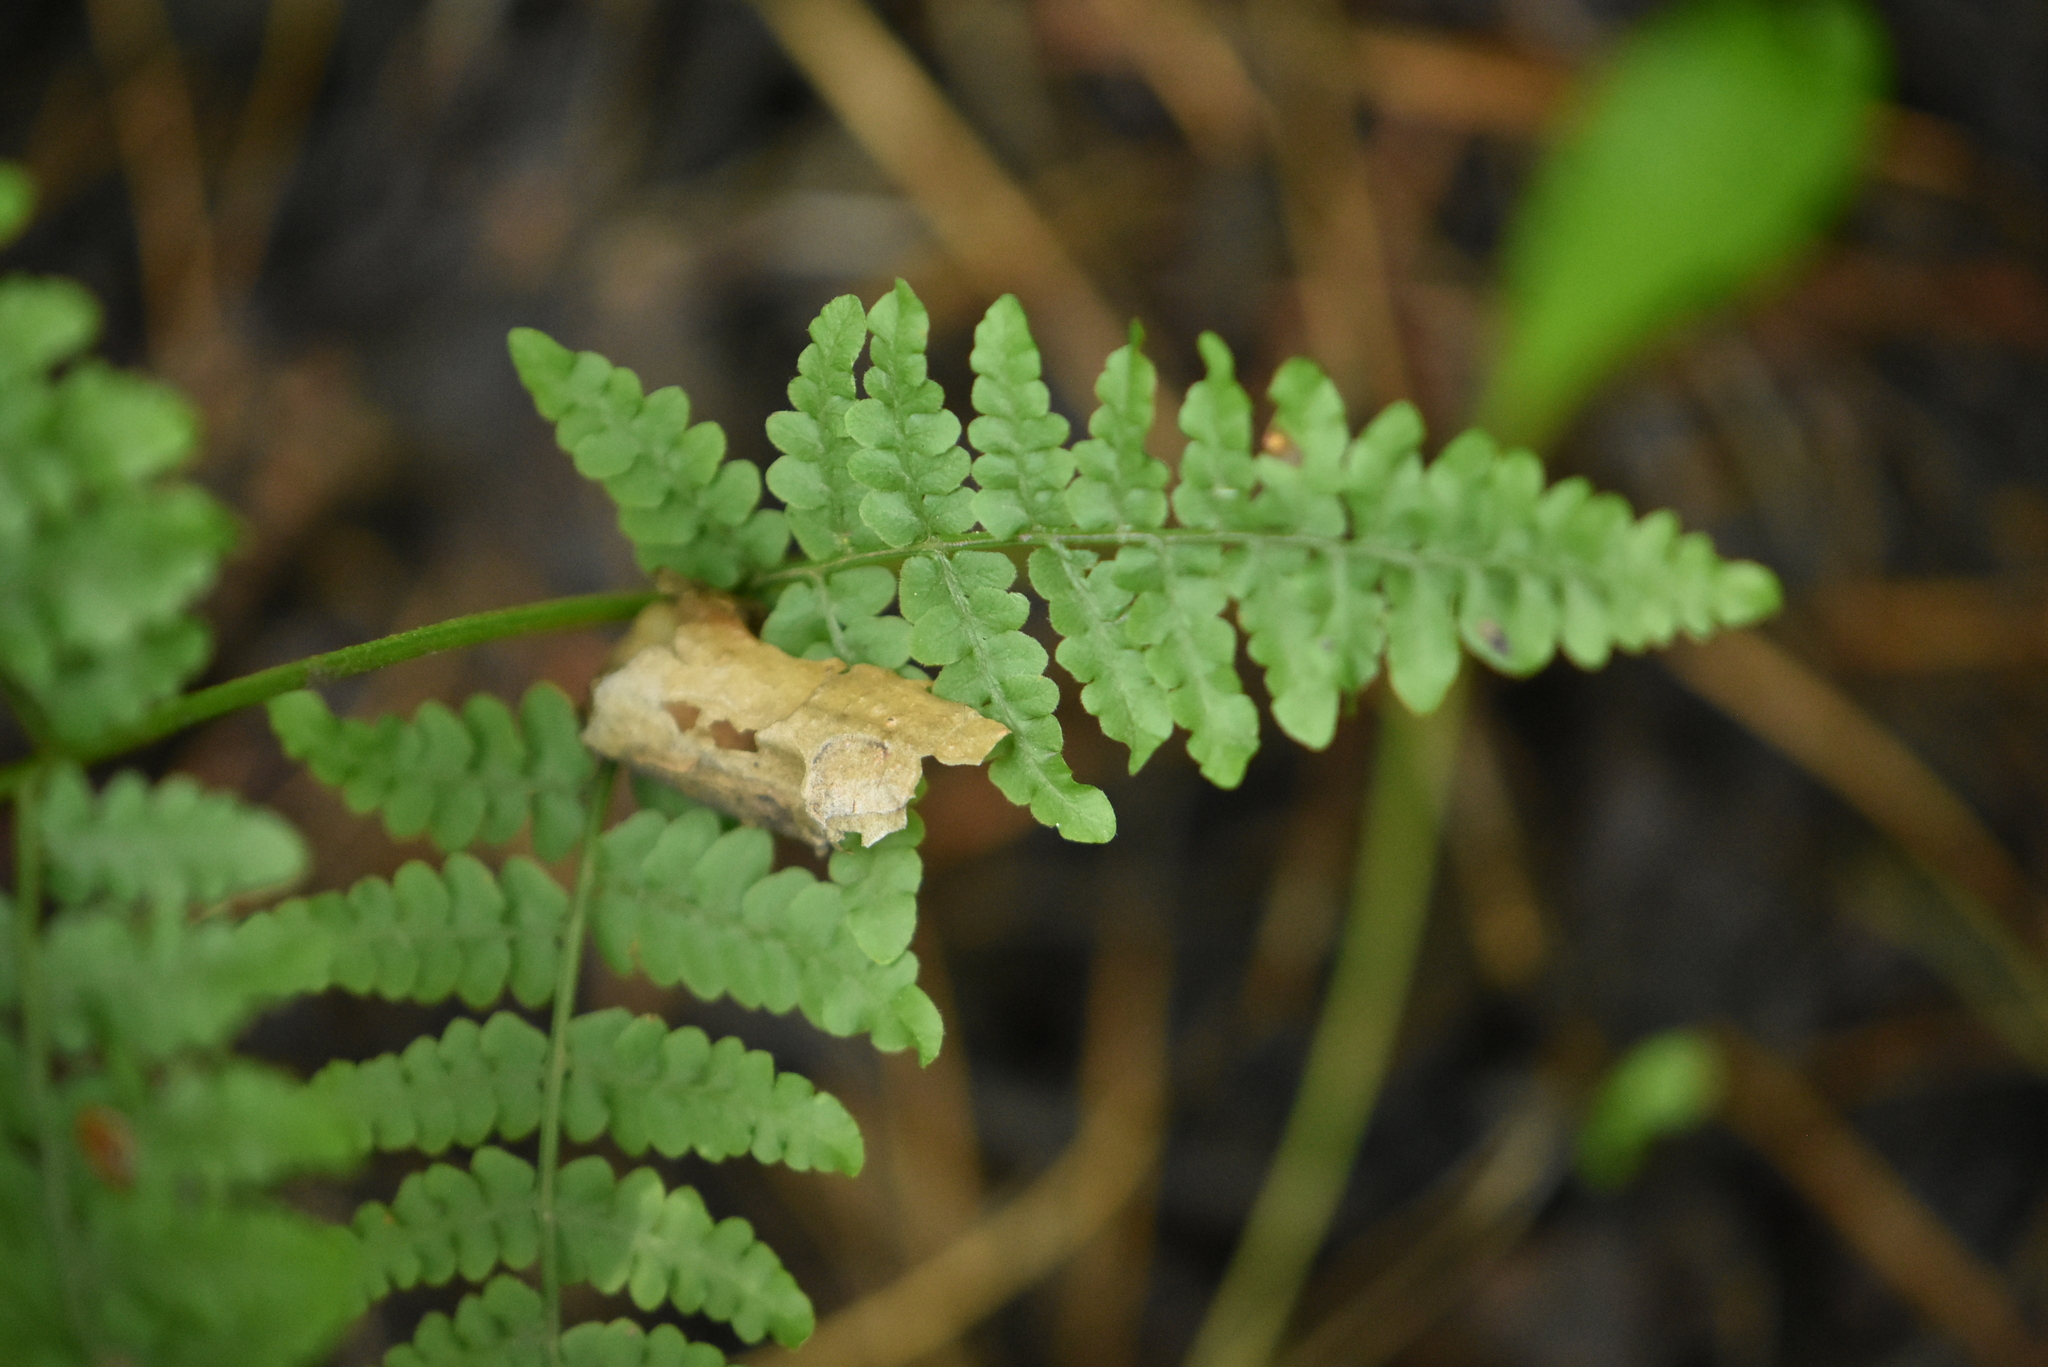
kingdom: Plantae
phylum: Tracheophyta
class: Polypodiopsida
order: Polypodiales
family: Dennstaedtiaceae
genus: Pteridium
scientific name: Pteridium aquilinum
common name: Bracken
